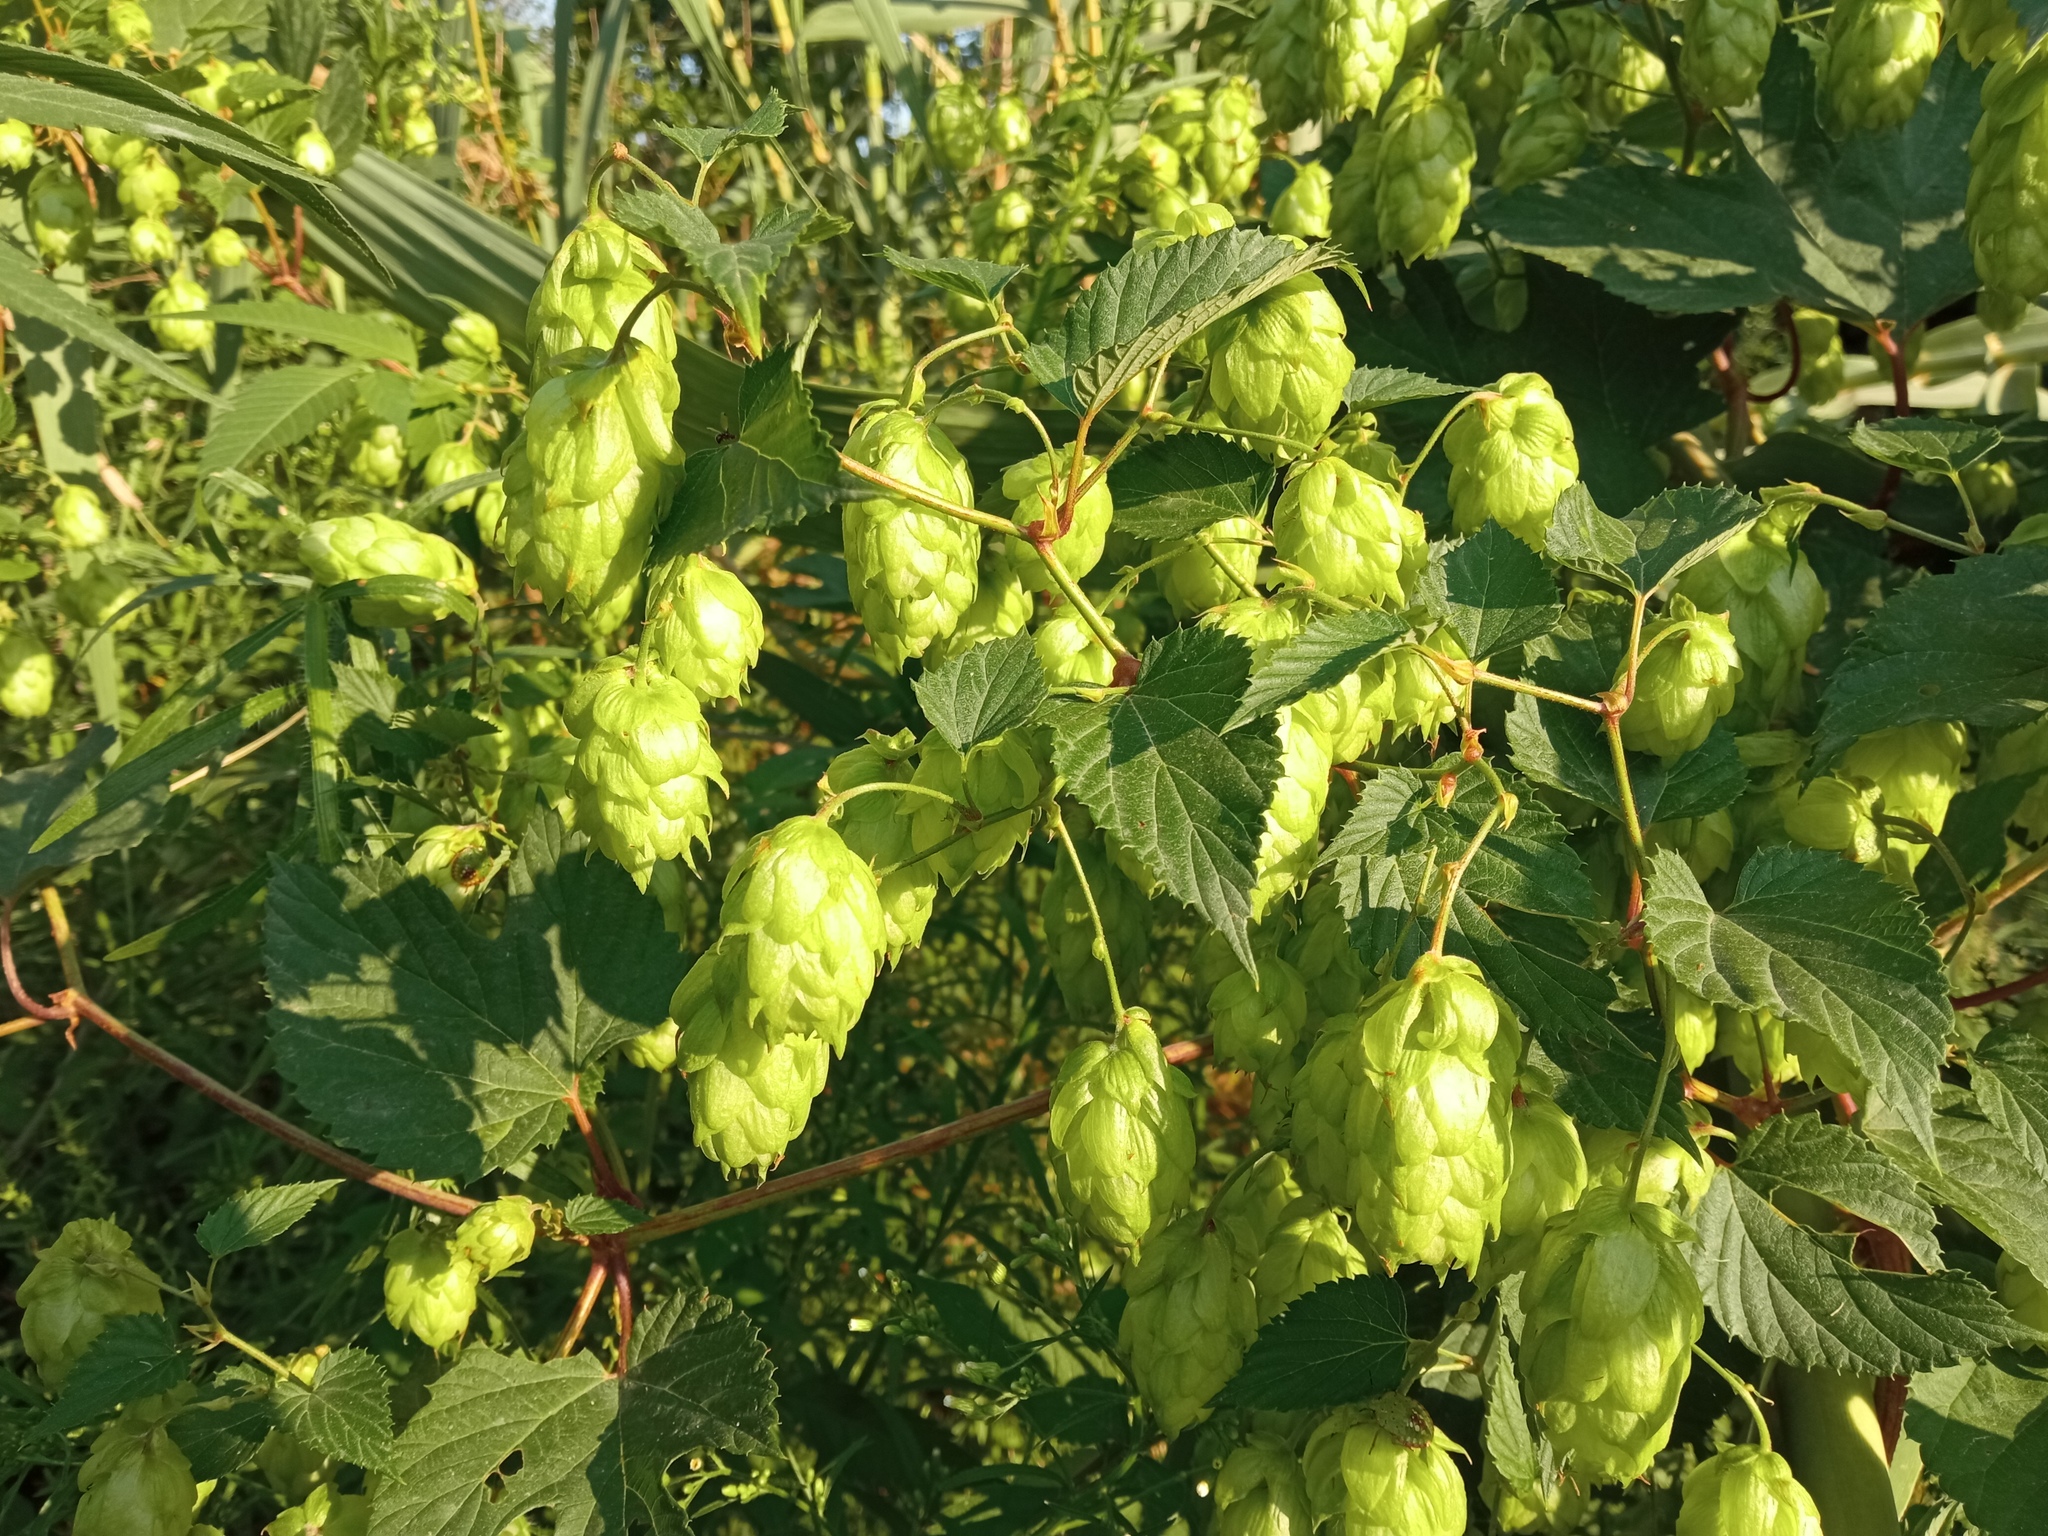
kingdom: Plantae
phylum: Tracheophyta
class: Magnoliopsida
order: Rosales
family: Cannabaceae
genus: Humulus
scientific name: Humulus lupulus
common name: Hop
